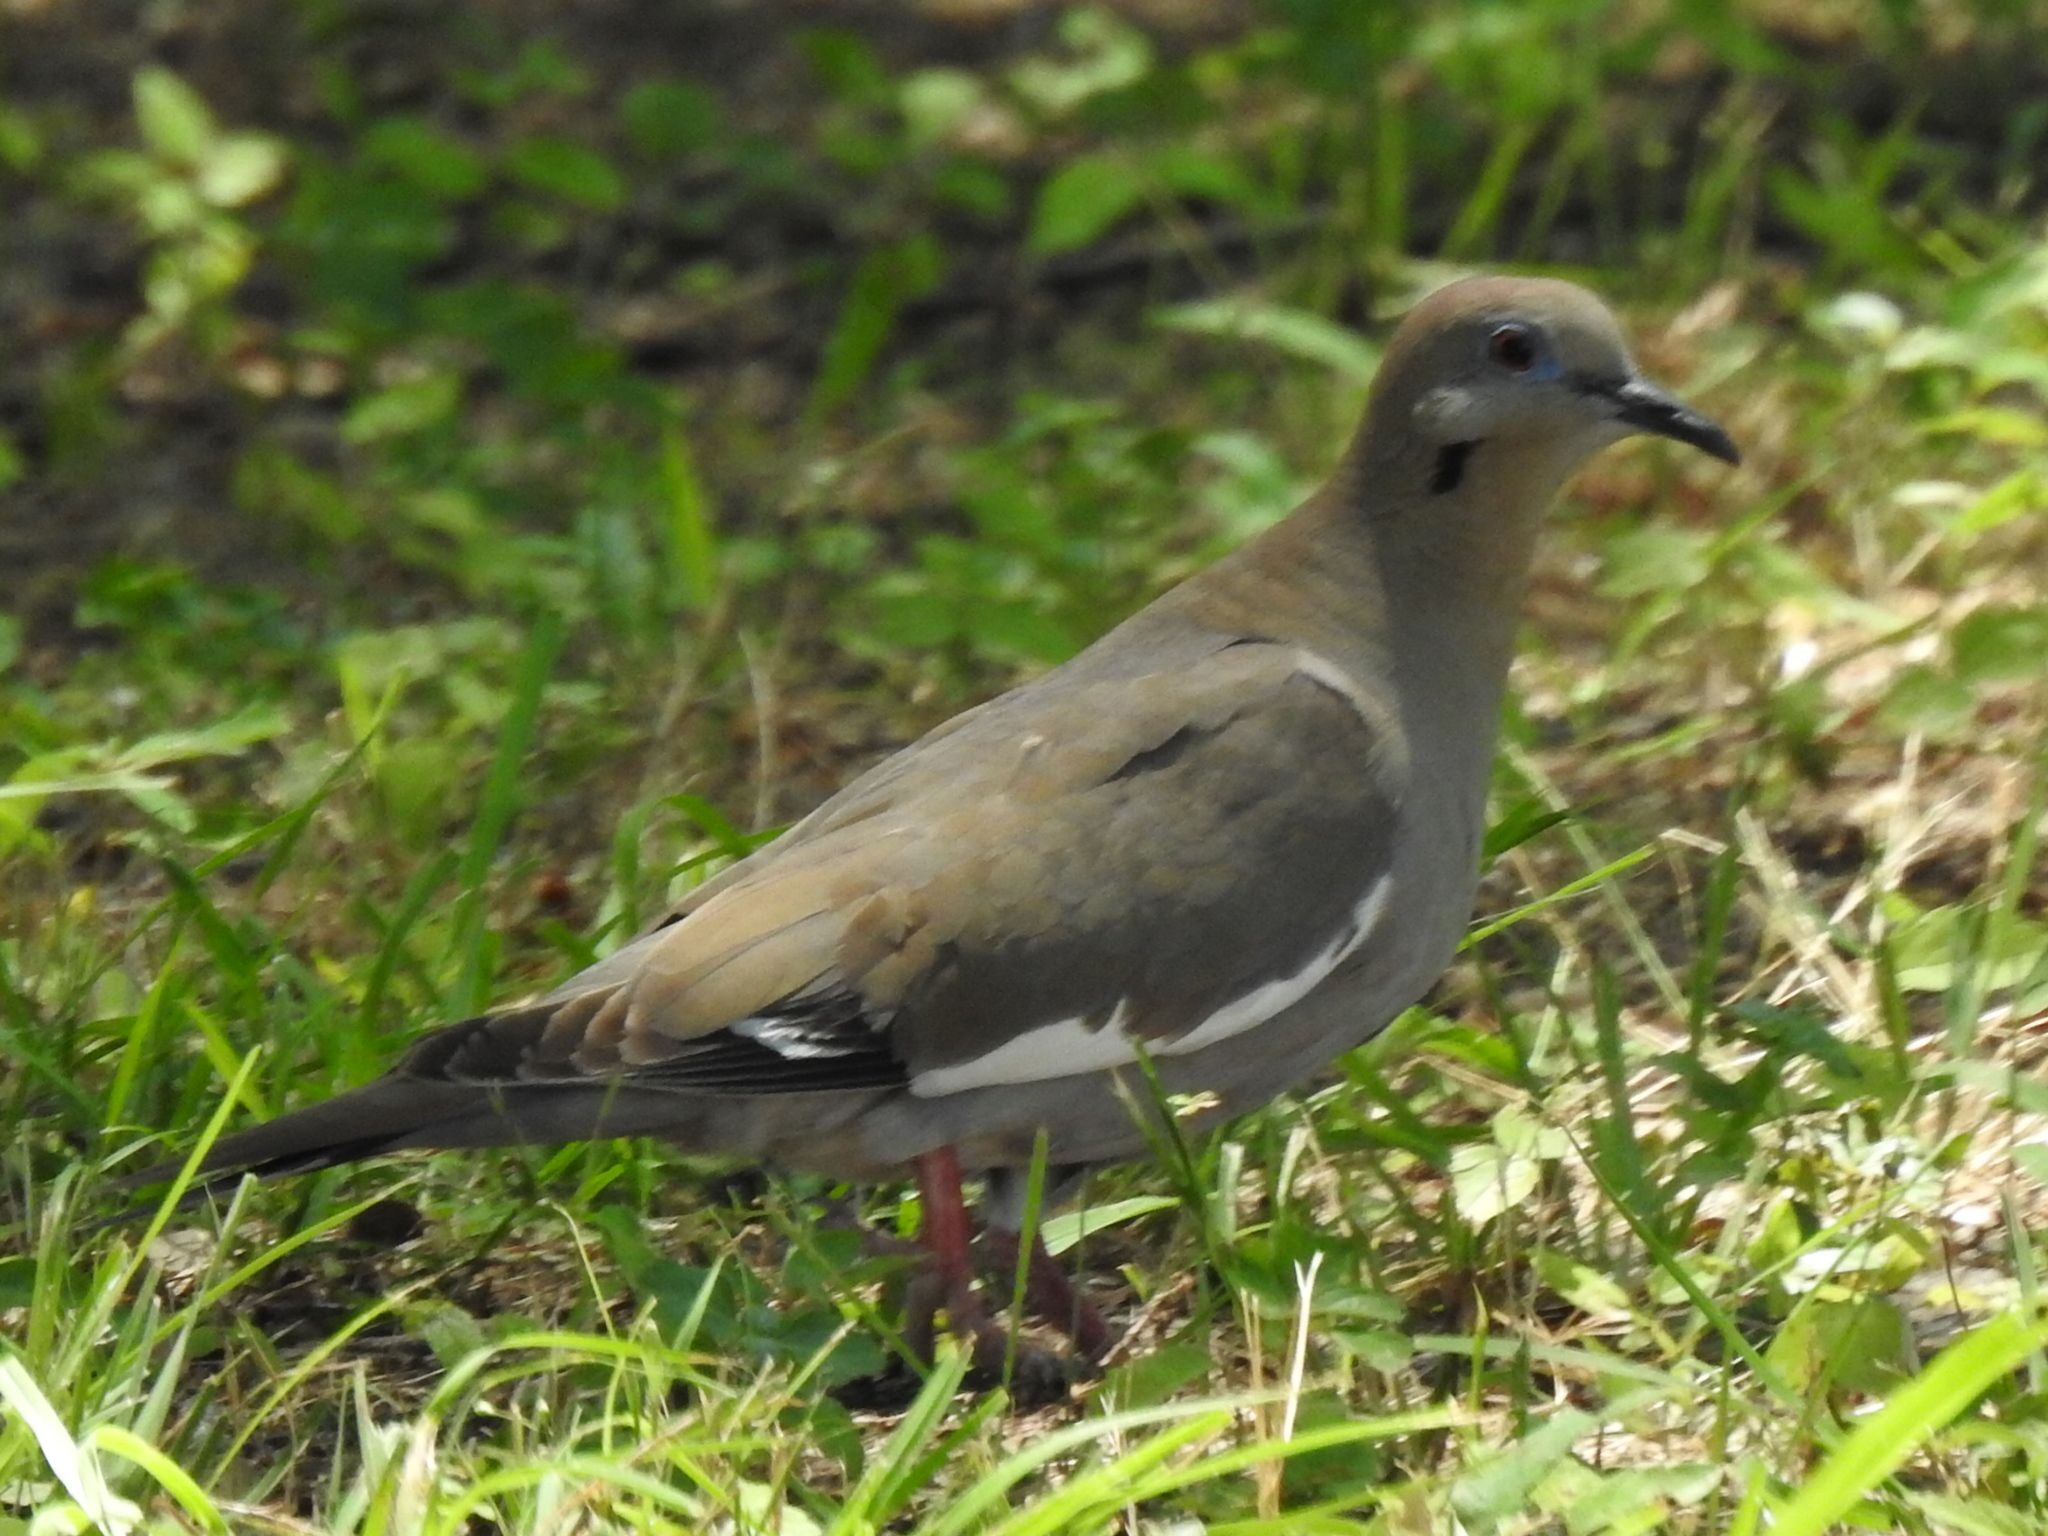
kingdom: Animalia
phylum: Chordata
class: Aves
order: Columbiformes
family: Columbidae
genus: Zenaida
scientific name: Zenaida asiatica
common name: White-winged dove
